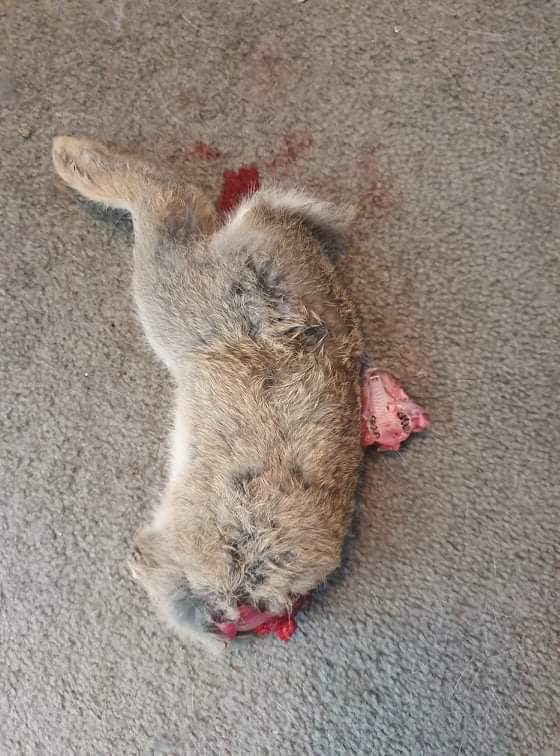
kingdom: Animalia
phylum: Chordata
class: Mammalia
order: Lagomorpha
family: Leporidae
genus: Oryctolagus
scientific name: Oryctolagus cuniculus
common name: European rabbit
